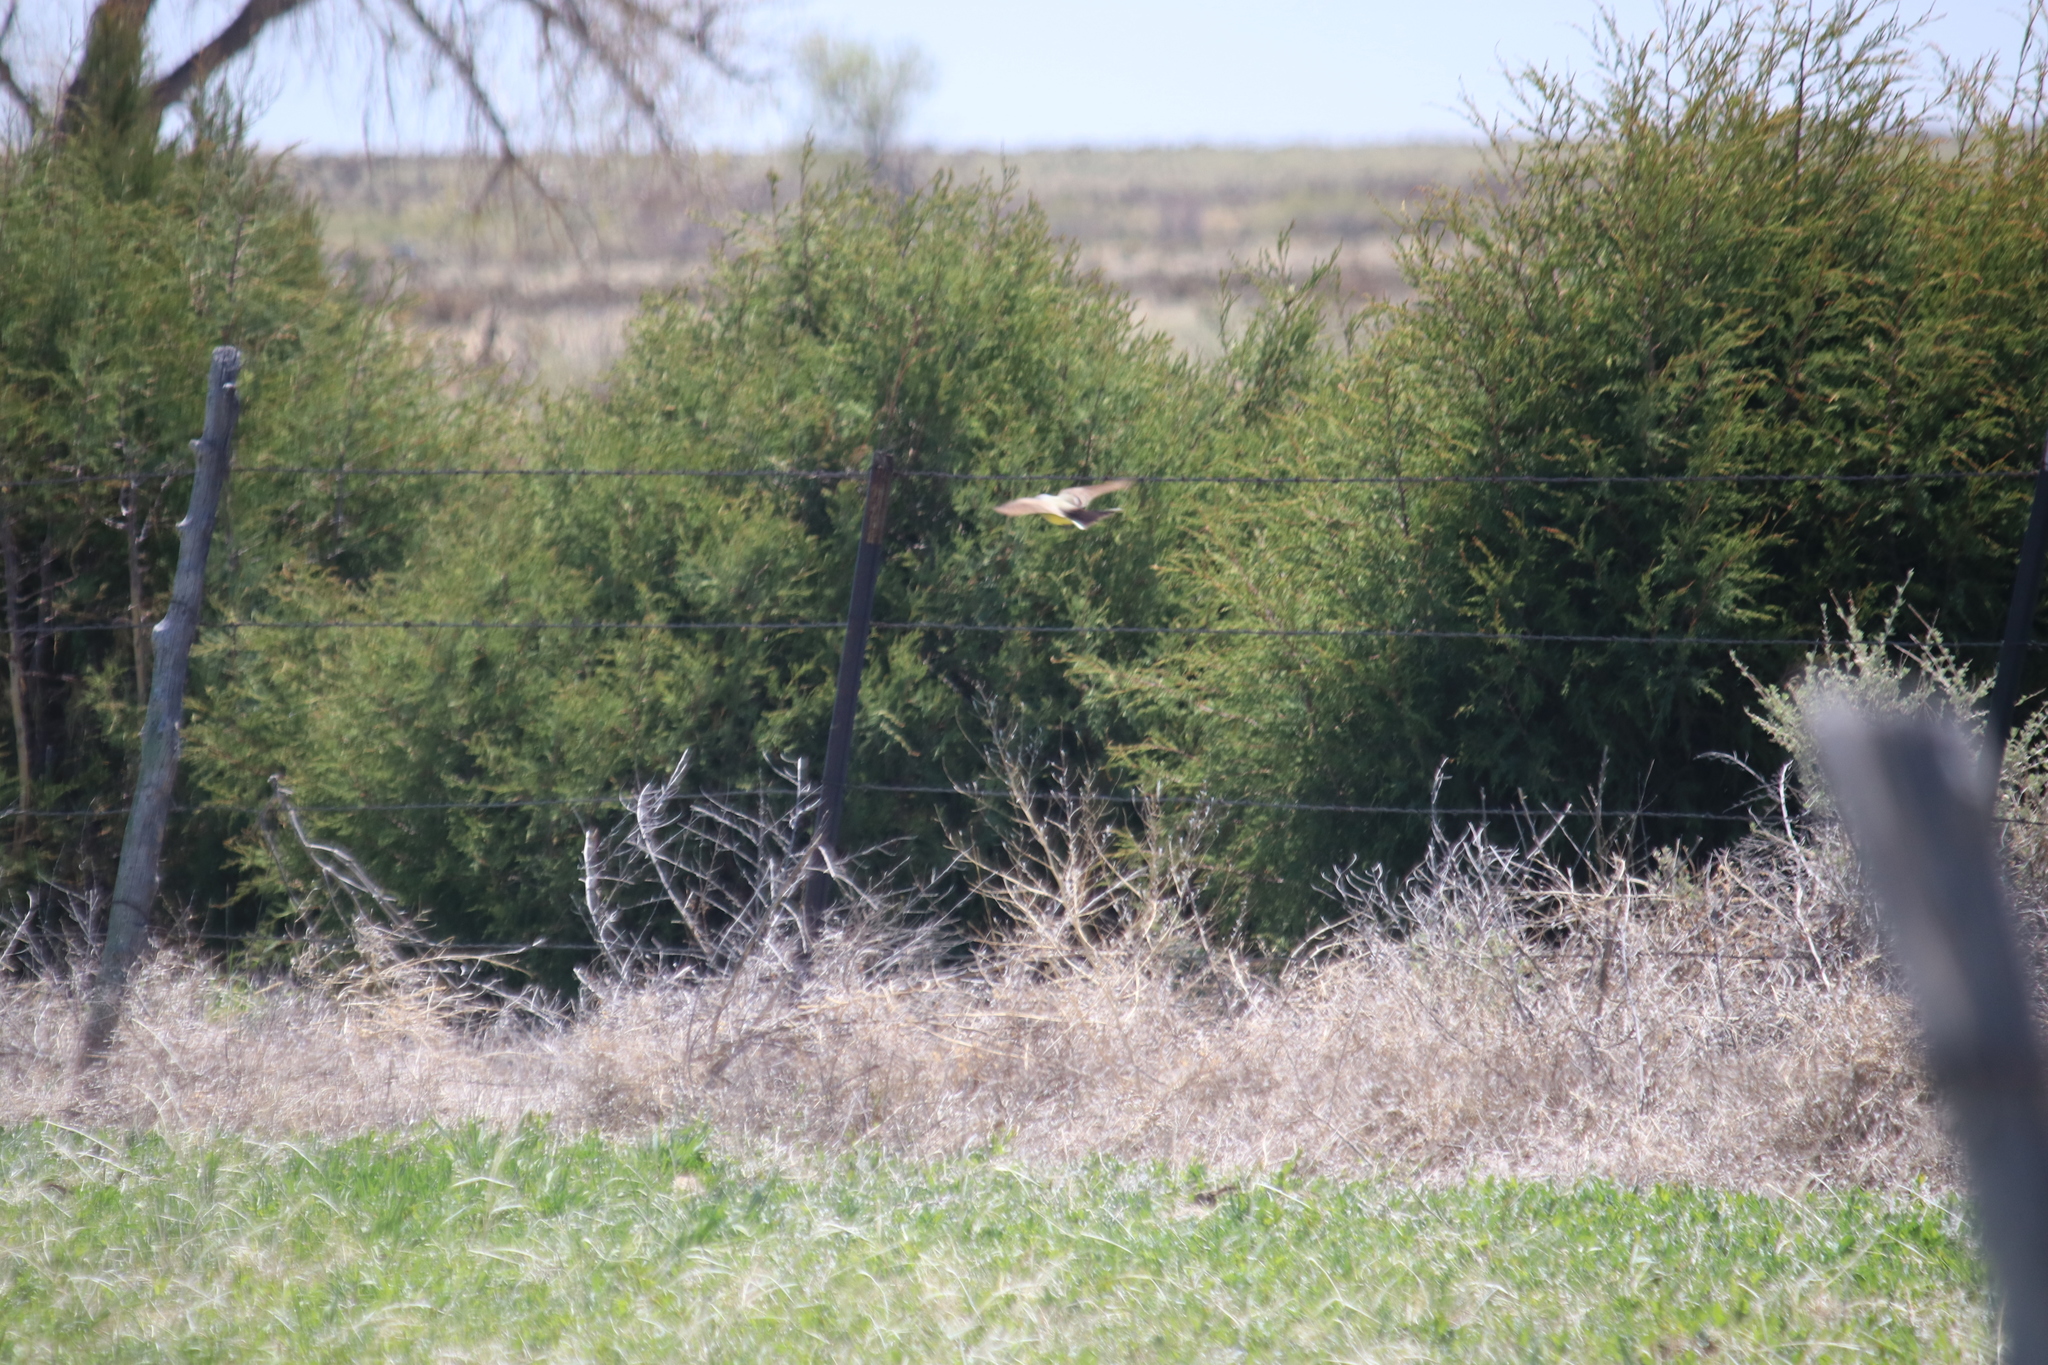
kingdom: Animalia
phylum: Chordata
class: Aves
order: Passeriformes
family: Tyrannidae
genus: Tyrannus
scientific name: Tyrannus verticalis
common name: Western kingbird
